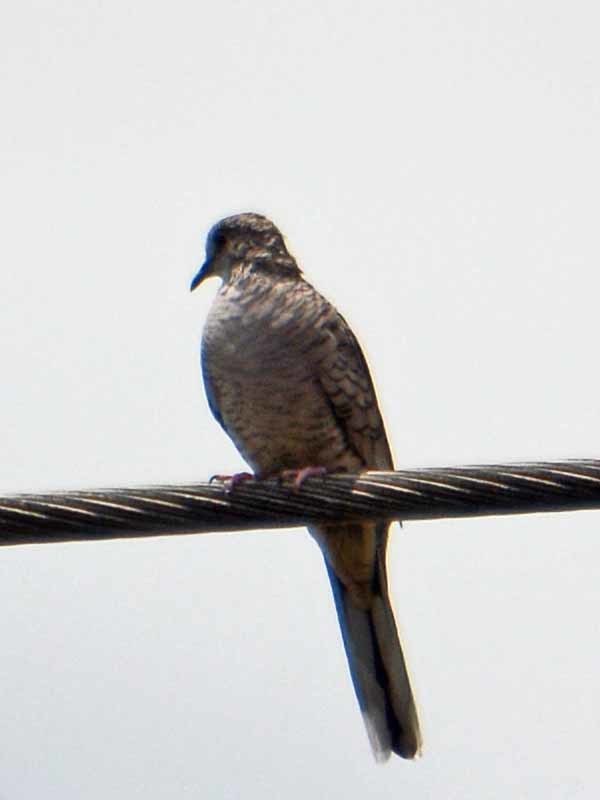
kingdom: Animalia
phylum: Chordata
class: Aves
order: Columbiformes
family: Columbidae
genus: Columbina
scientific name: Columbina inca
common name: Inca dove
